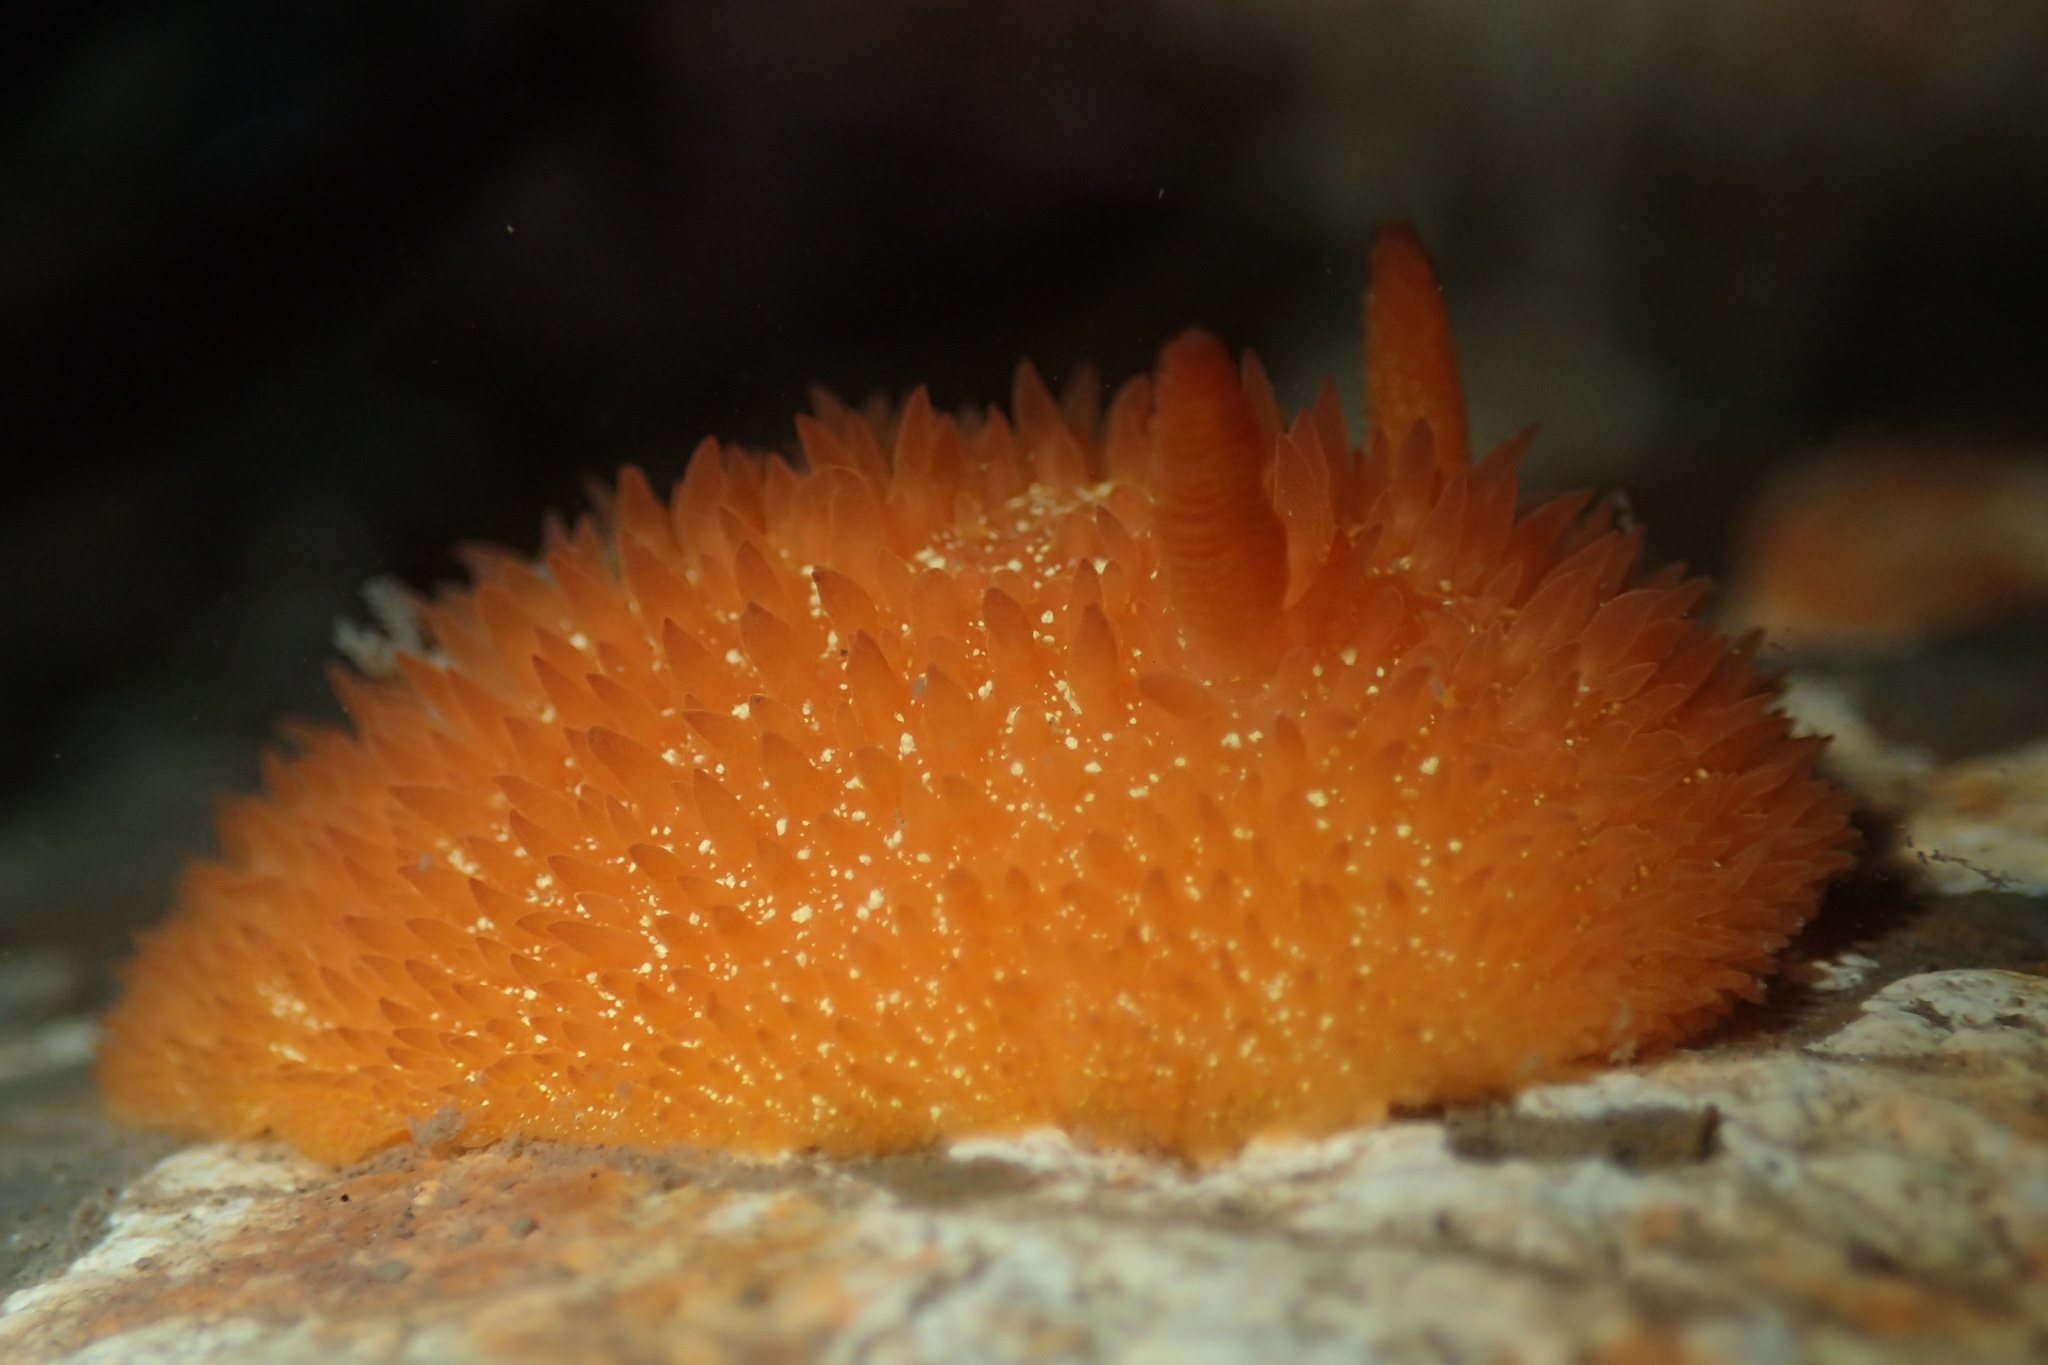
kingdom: Animalia
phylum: Mollusca
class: Gastropoda
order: Nudibranchia
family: Onchidorididae
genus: Acanthodoris
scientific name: Acanthodoris lutea
